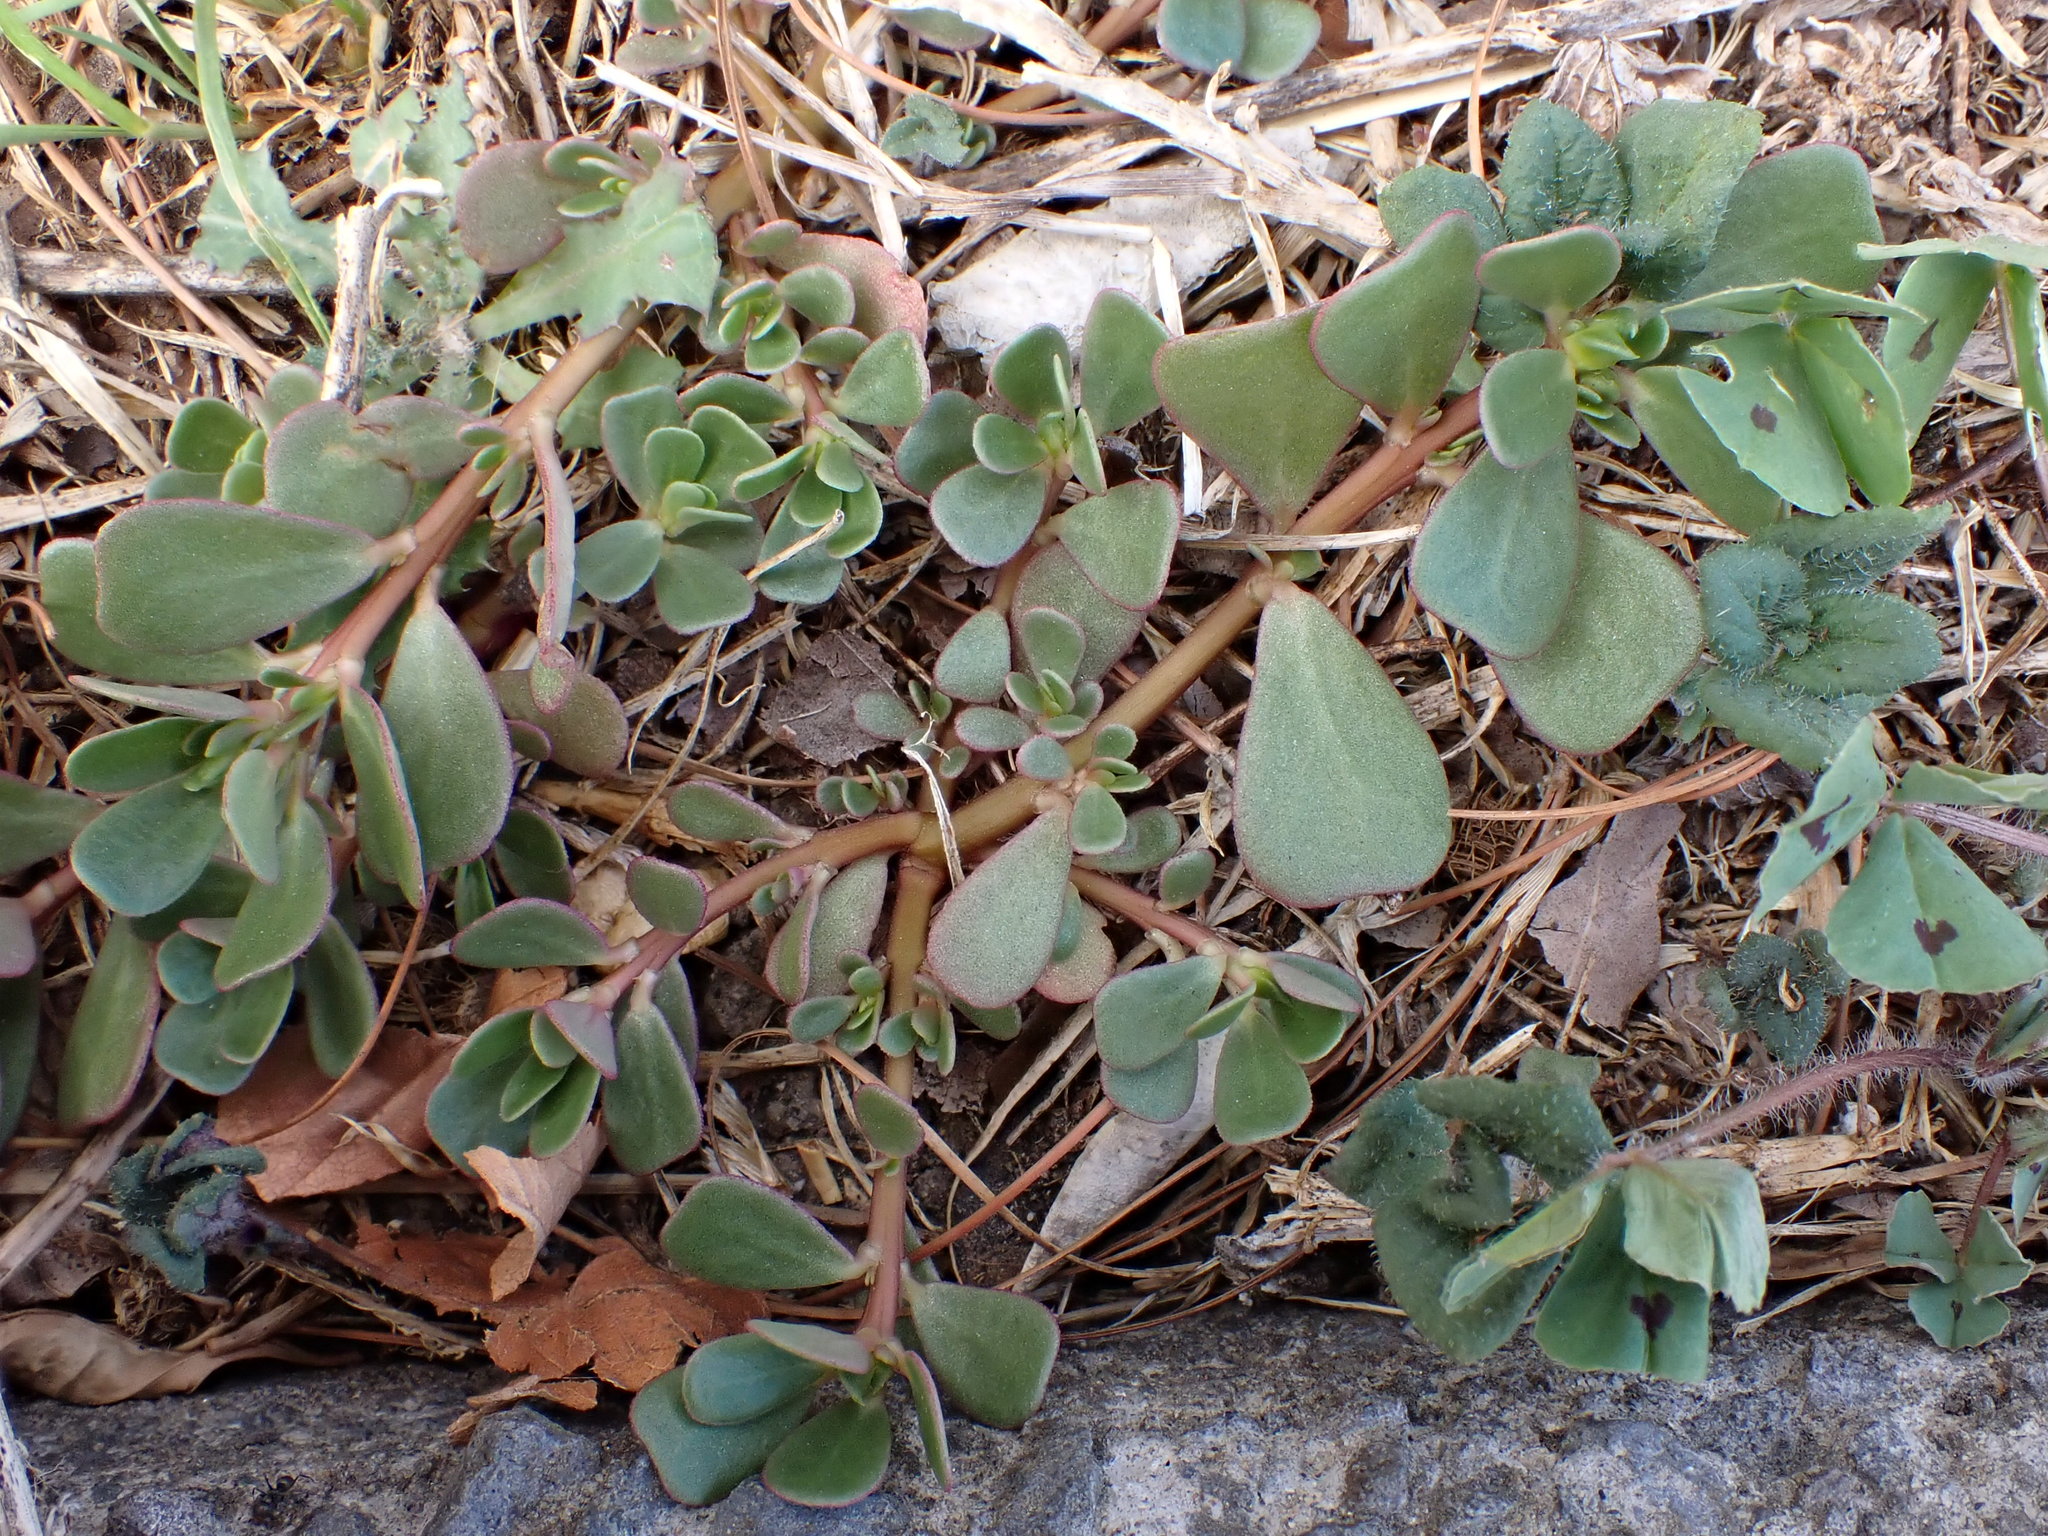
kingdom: Plantae
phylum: Tracheophyta
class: Magnoliopsida
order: Caryophyllales
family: Portulacaceae
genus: Portulaca
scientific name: Portulaca oleracea
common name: Common purslane
